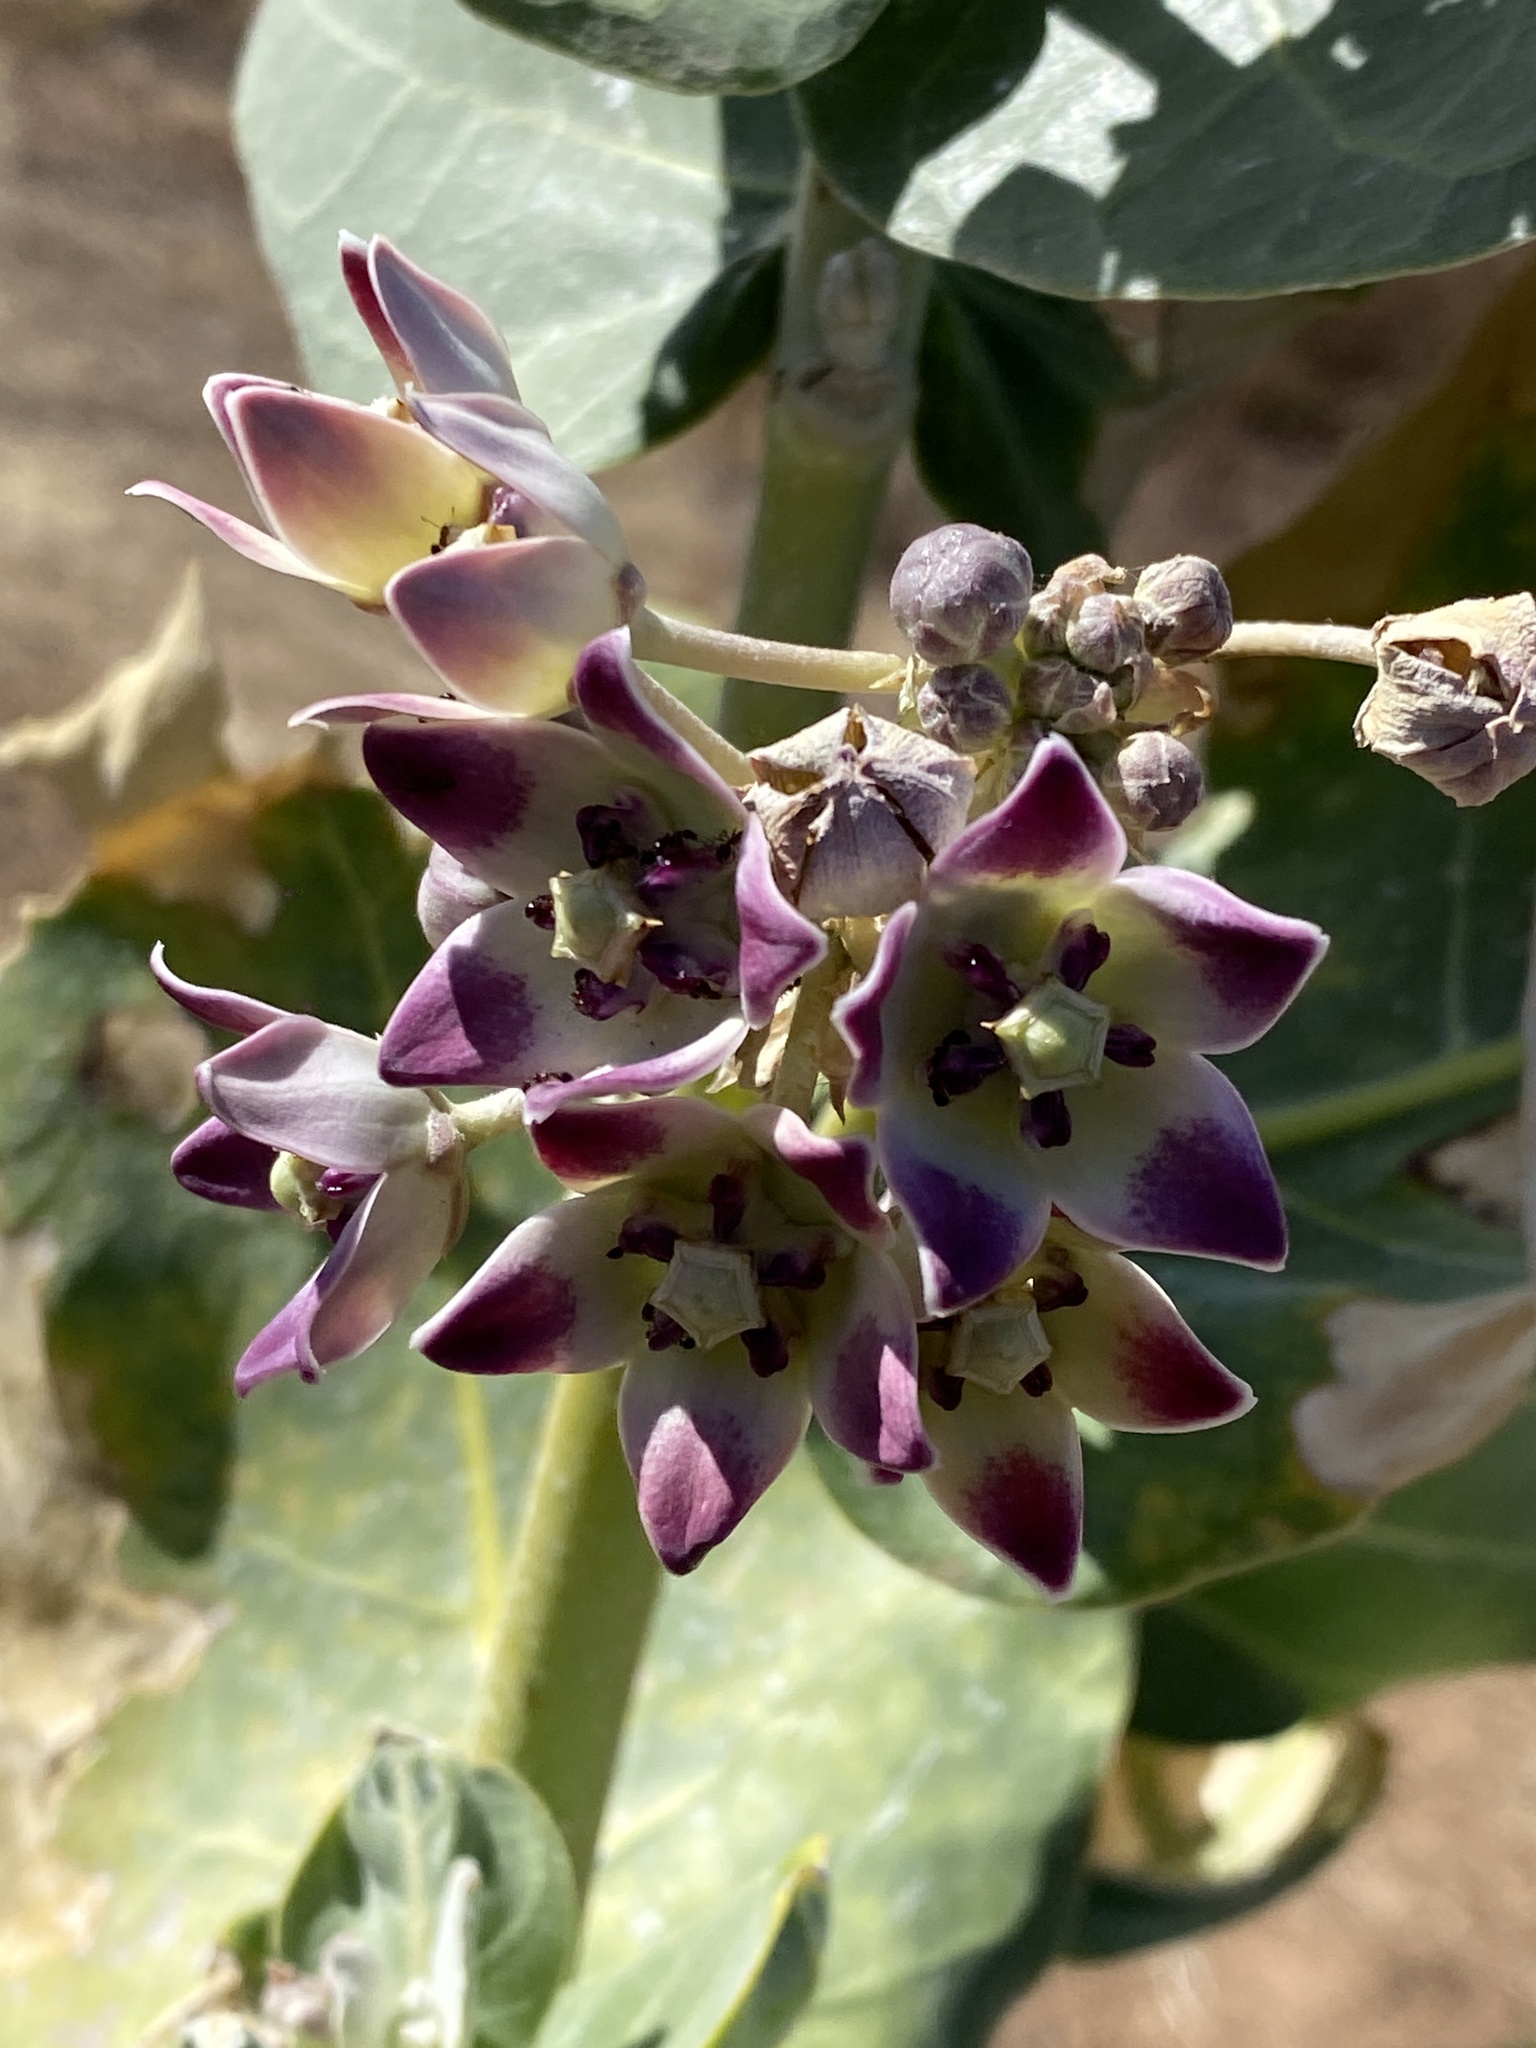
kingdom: Plantae
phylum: Tracheophyta
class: Magnoliopsida
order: Gentianales
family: Apocynaceae
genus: Calotropis
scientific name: Calotropis procera
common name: Roostertree
